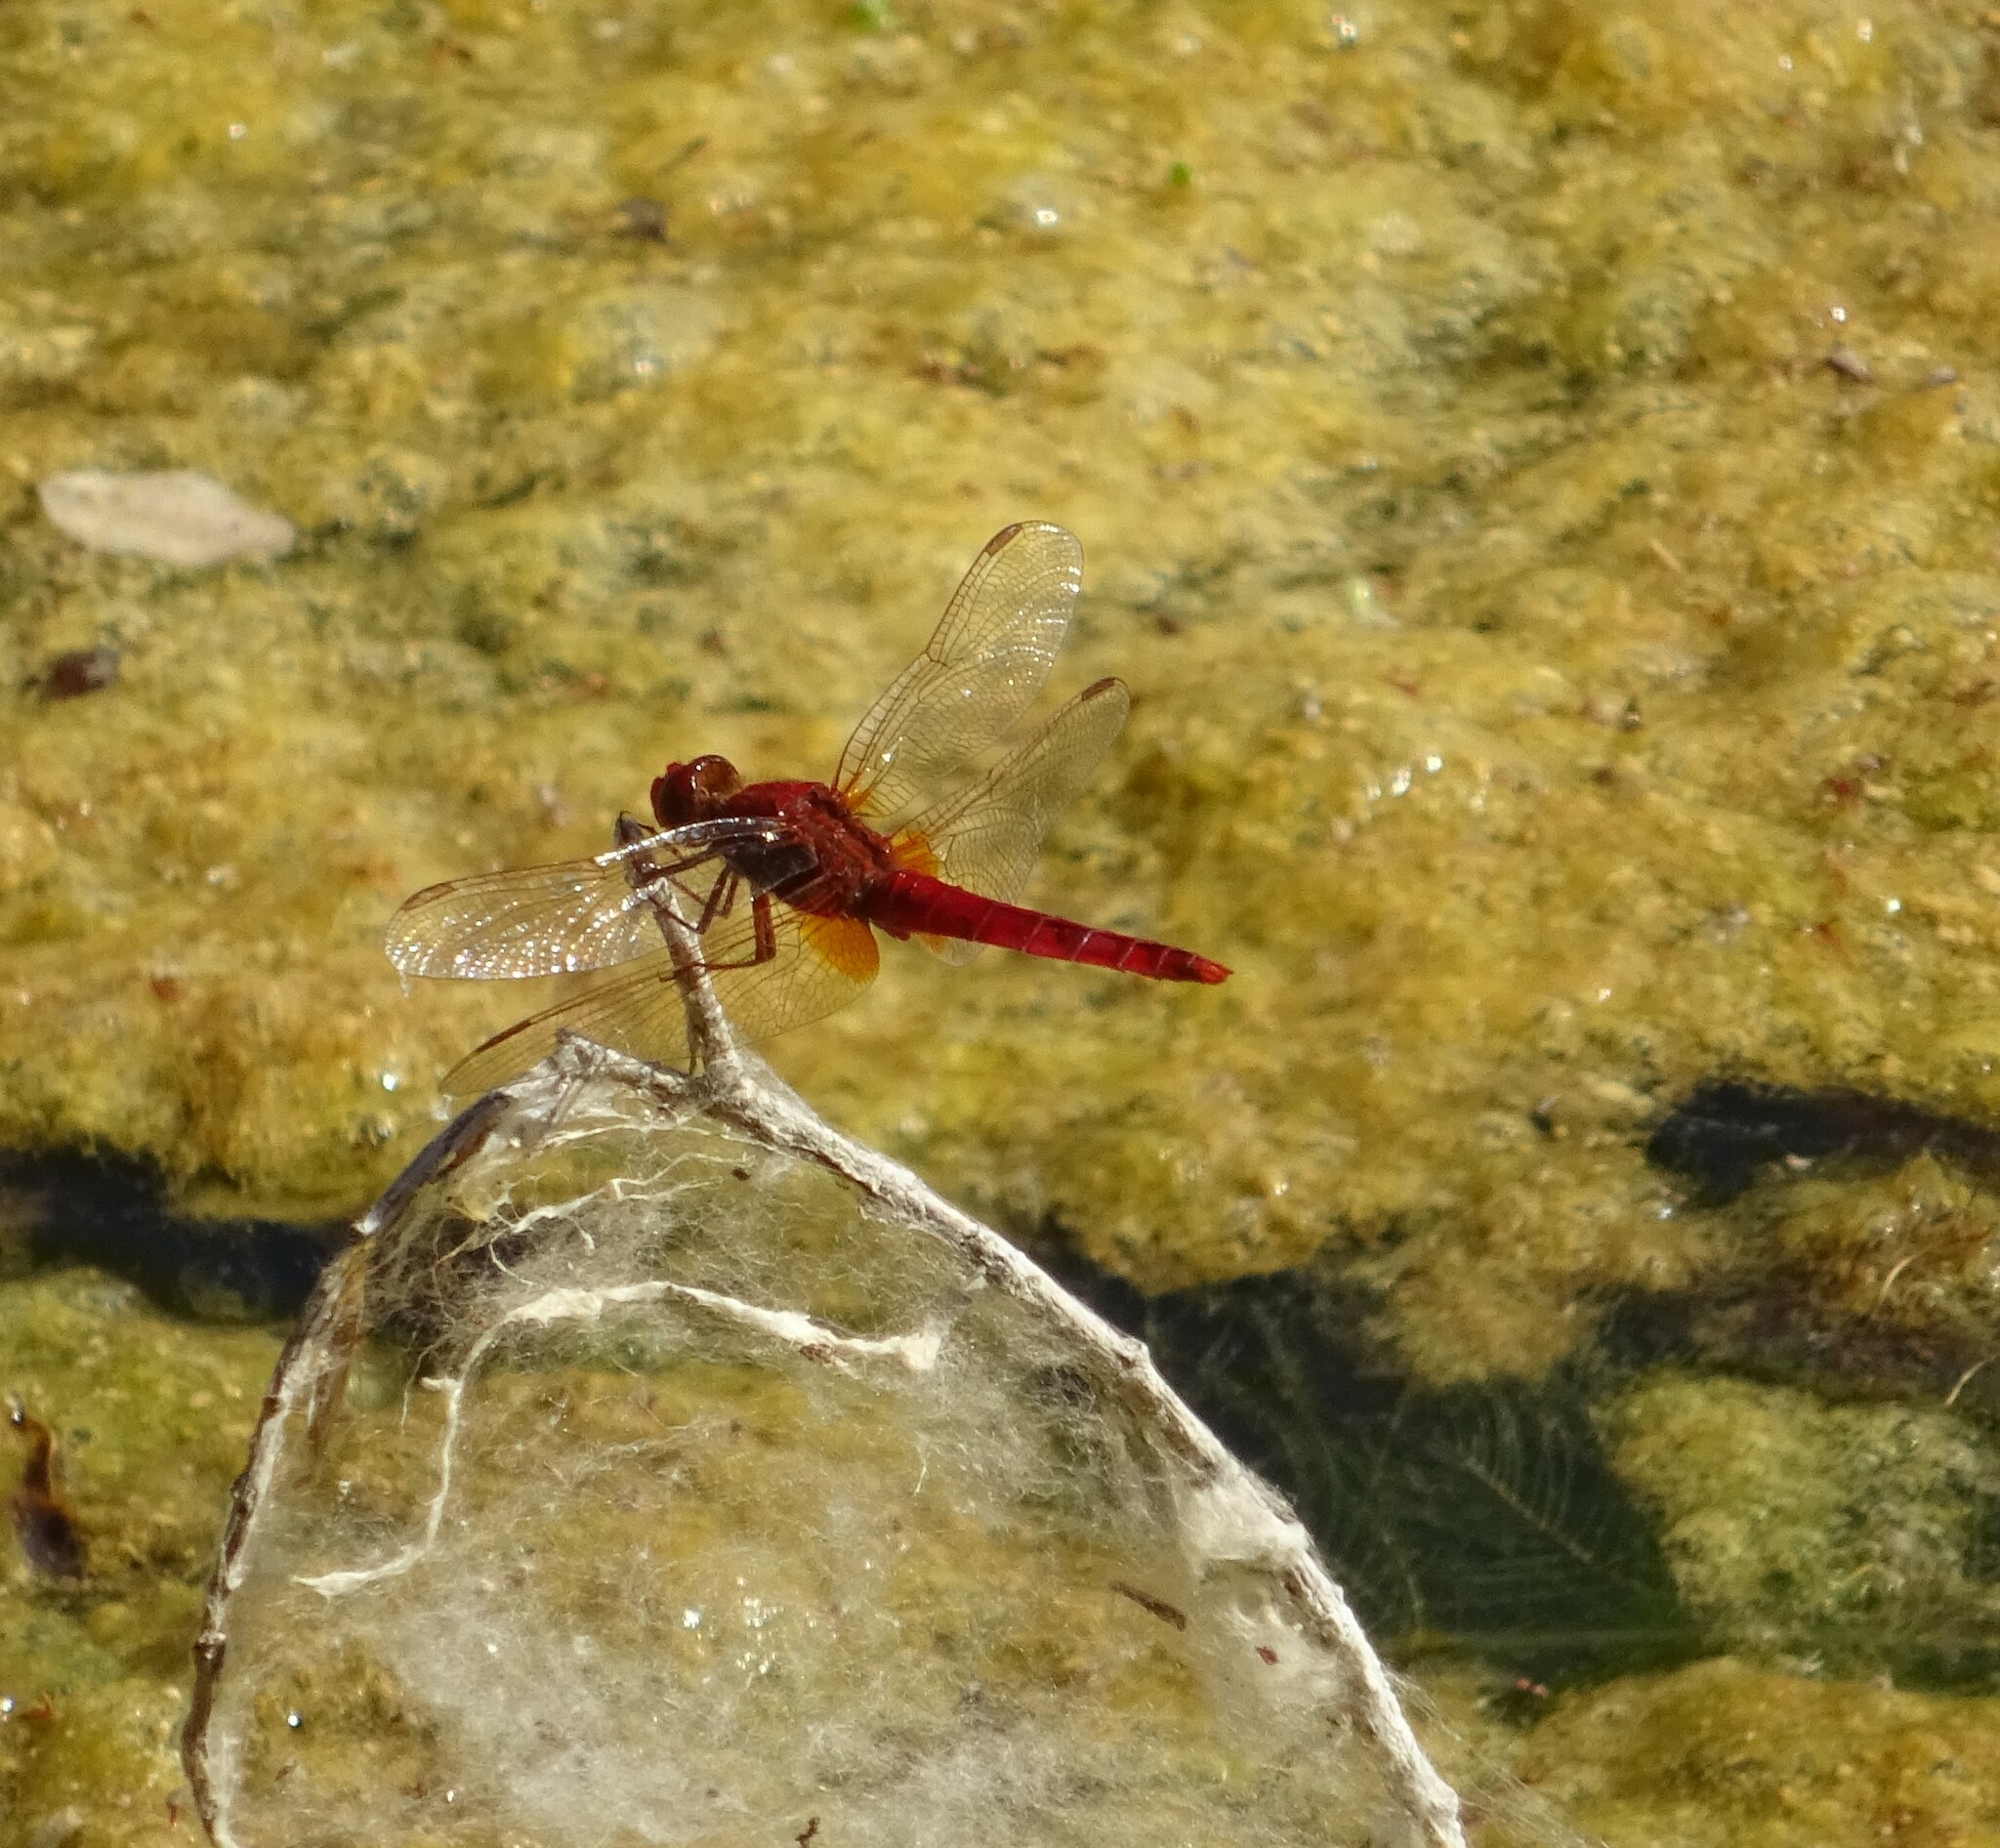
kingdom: Animalia
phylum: Arthropoda
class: Insecta
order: Odonata
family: Libellulidae
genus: Crocothemis
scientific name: Crocothemis erythraea
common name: Scarlet dragonfly
